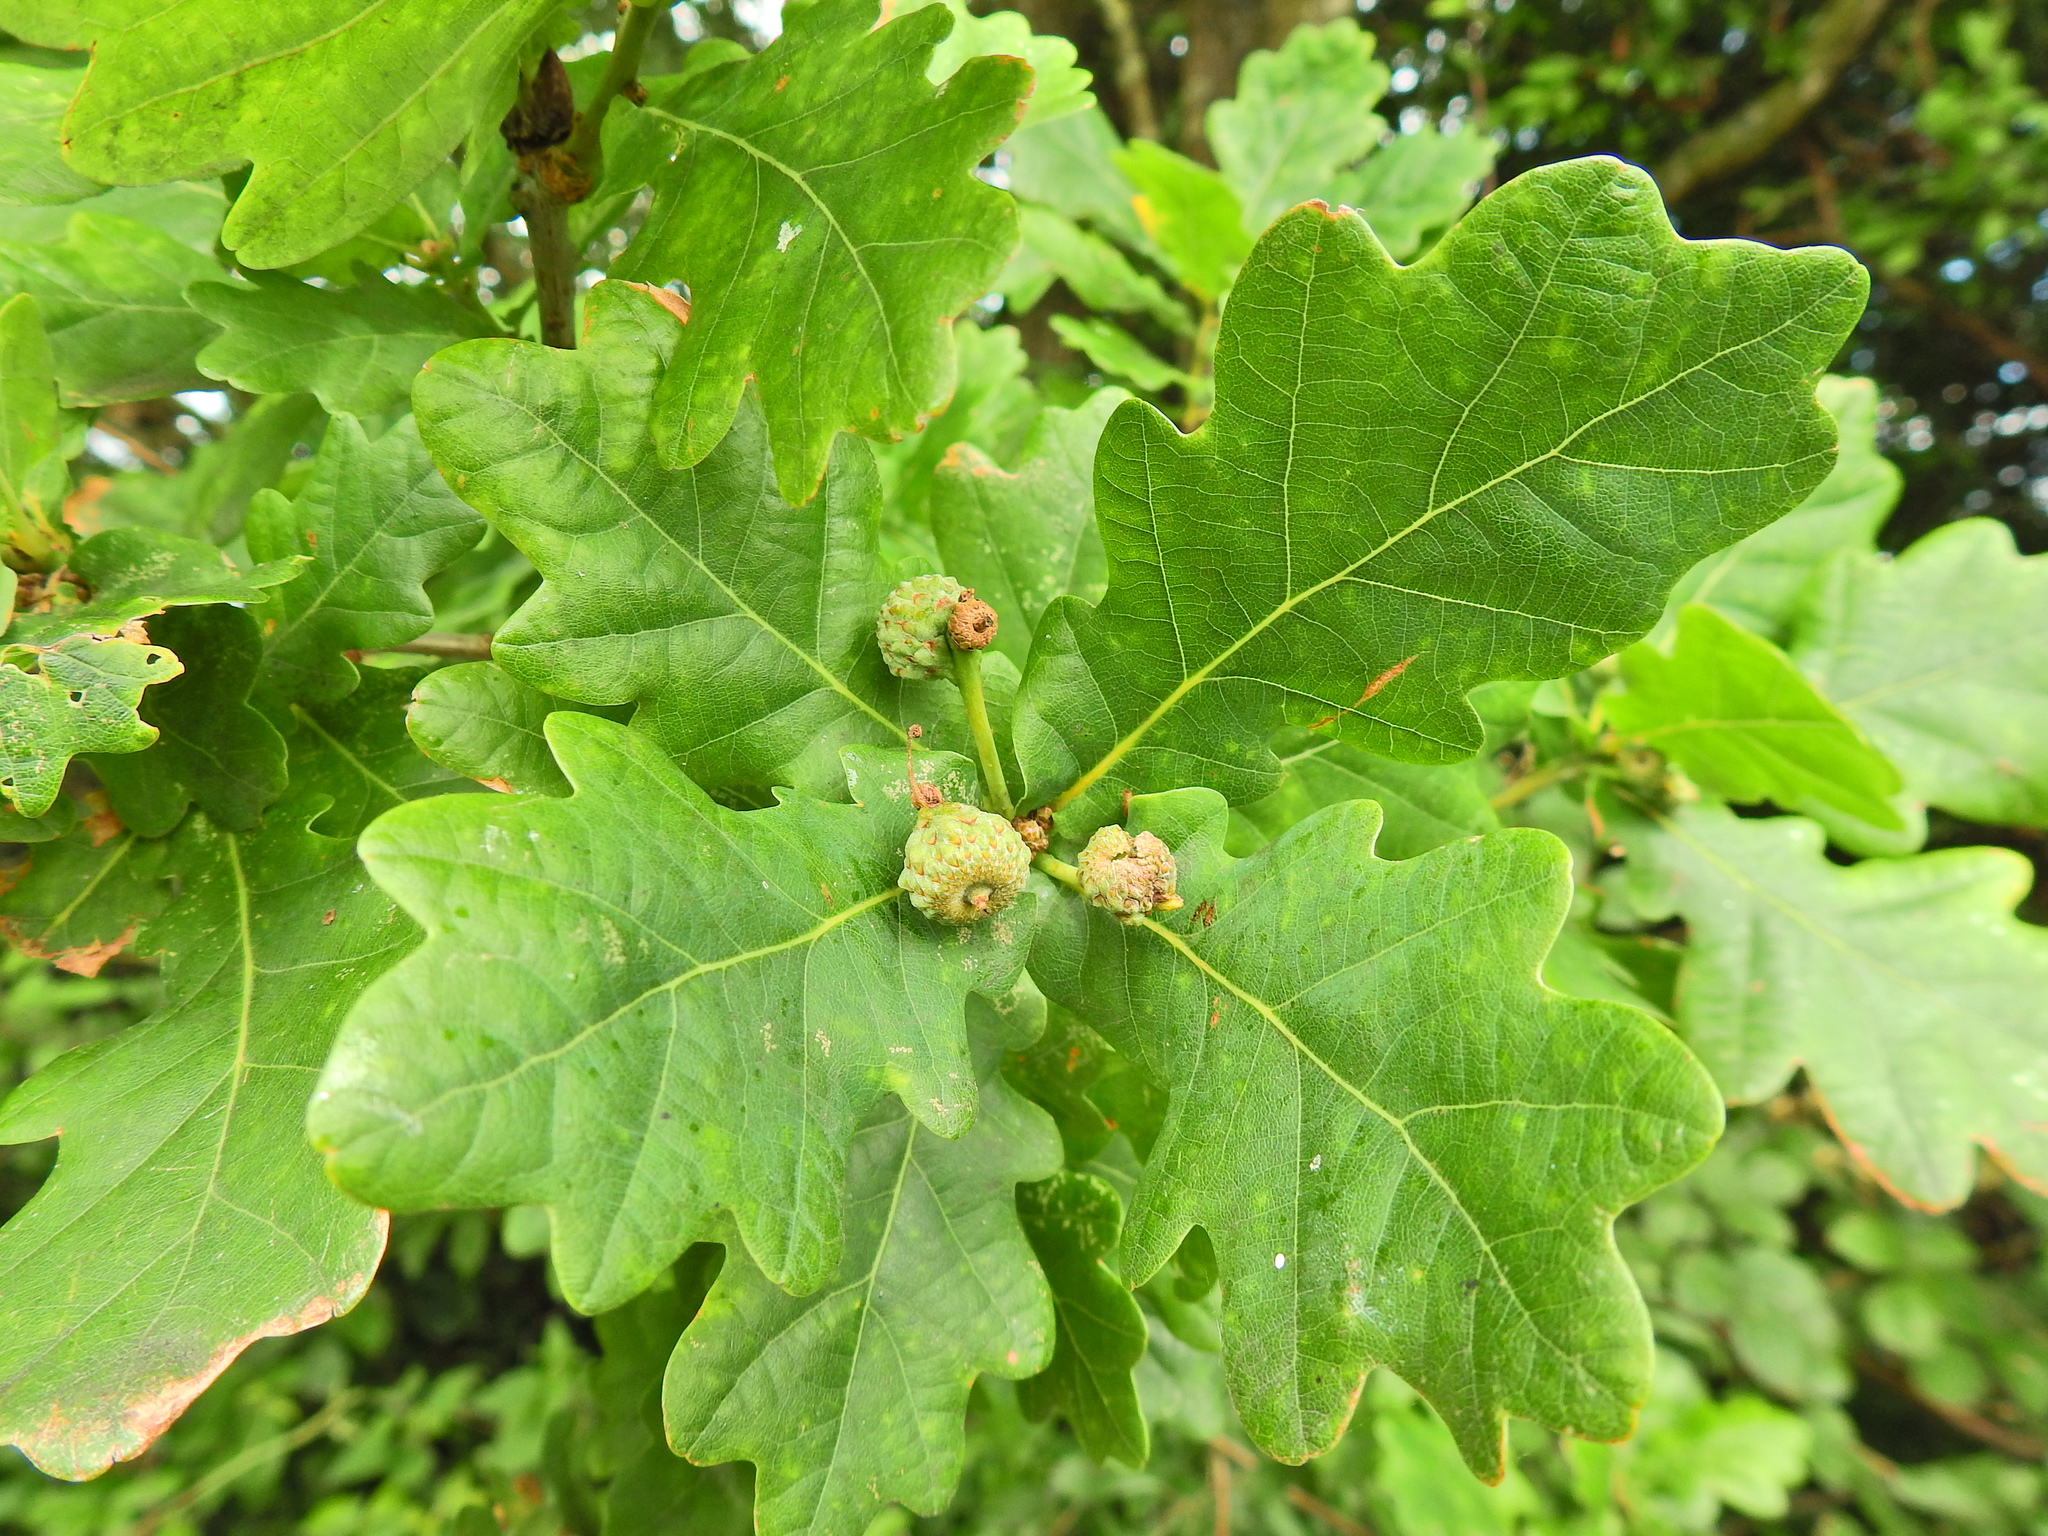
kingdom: Plantae
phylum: Tracheophyta
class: Magnoliopsida
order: Fagales
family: Fagaceae
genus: Quercus
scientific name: Quercus robur
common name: Pedunculate oak
